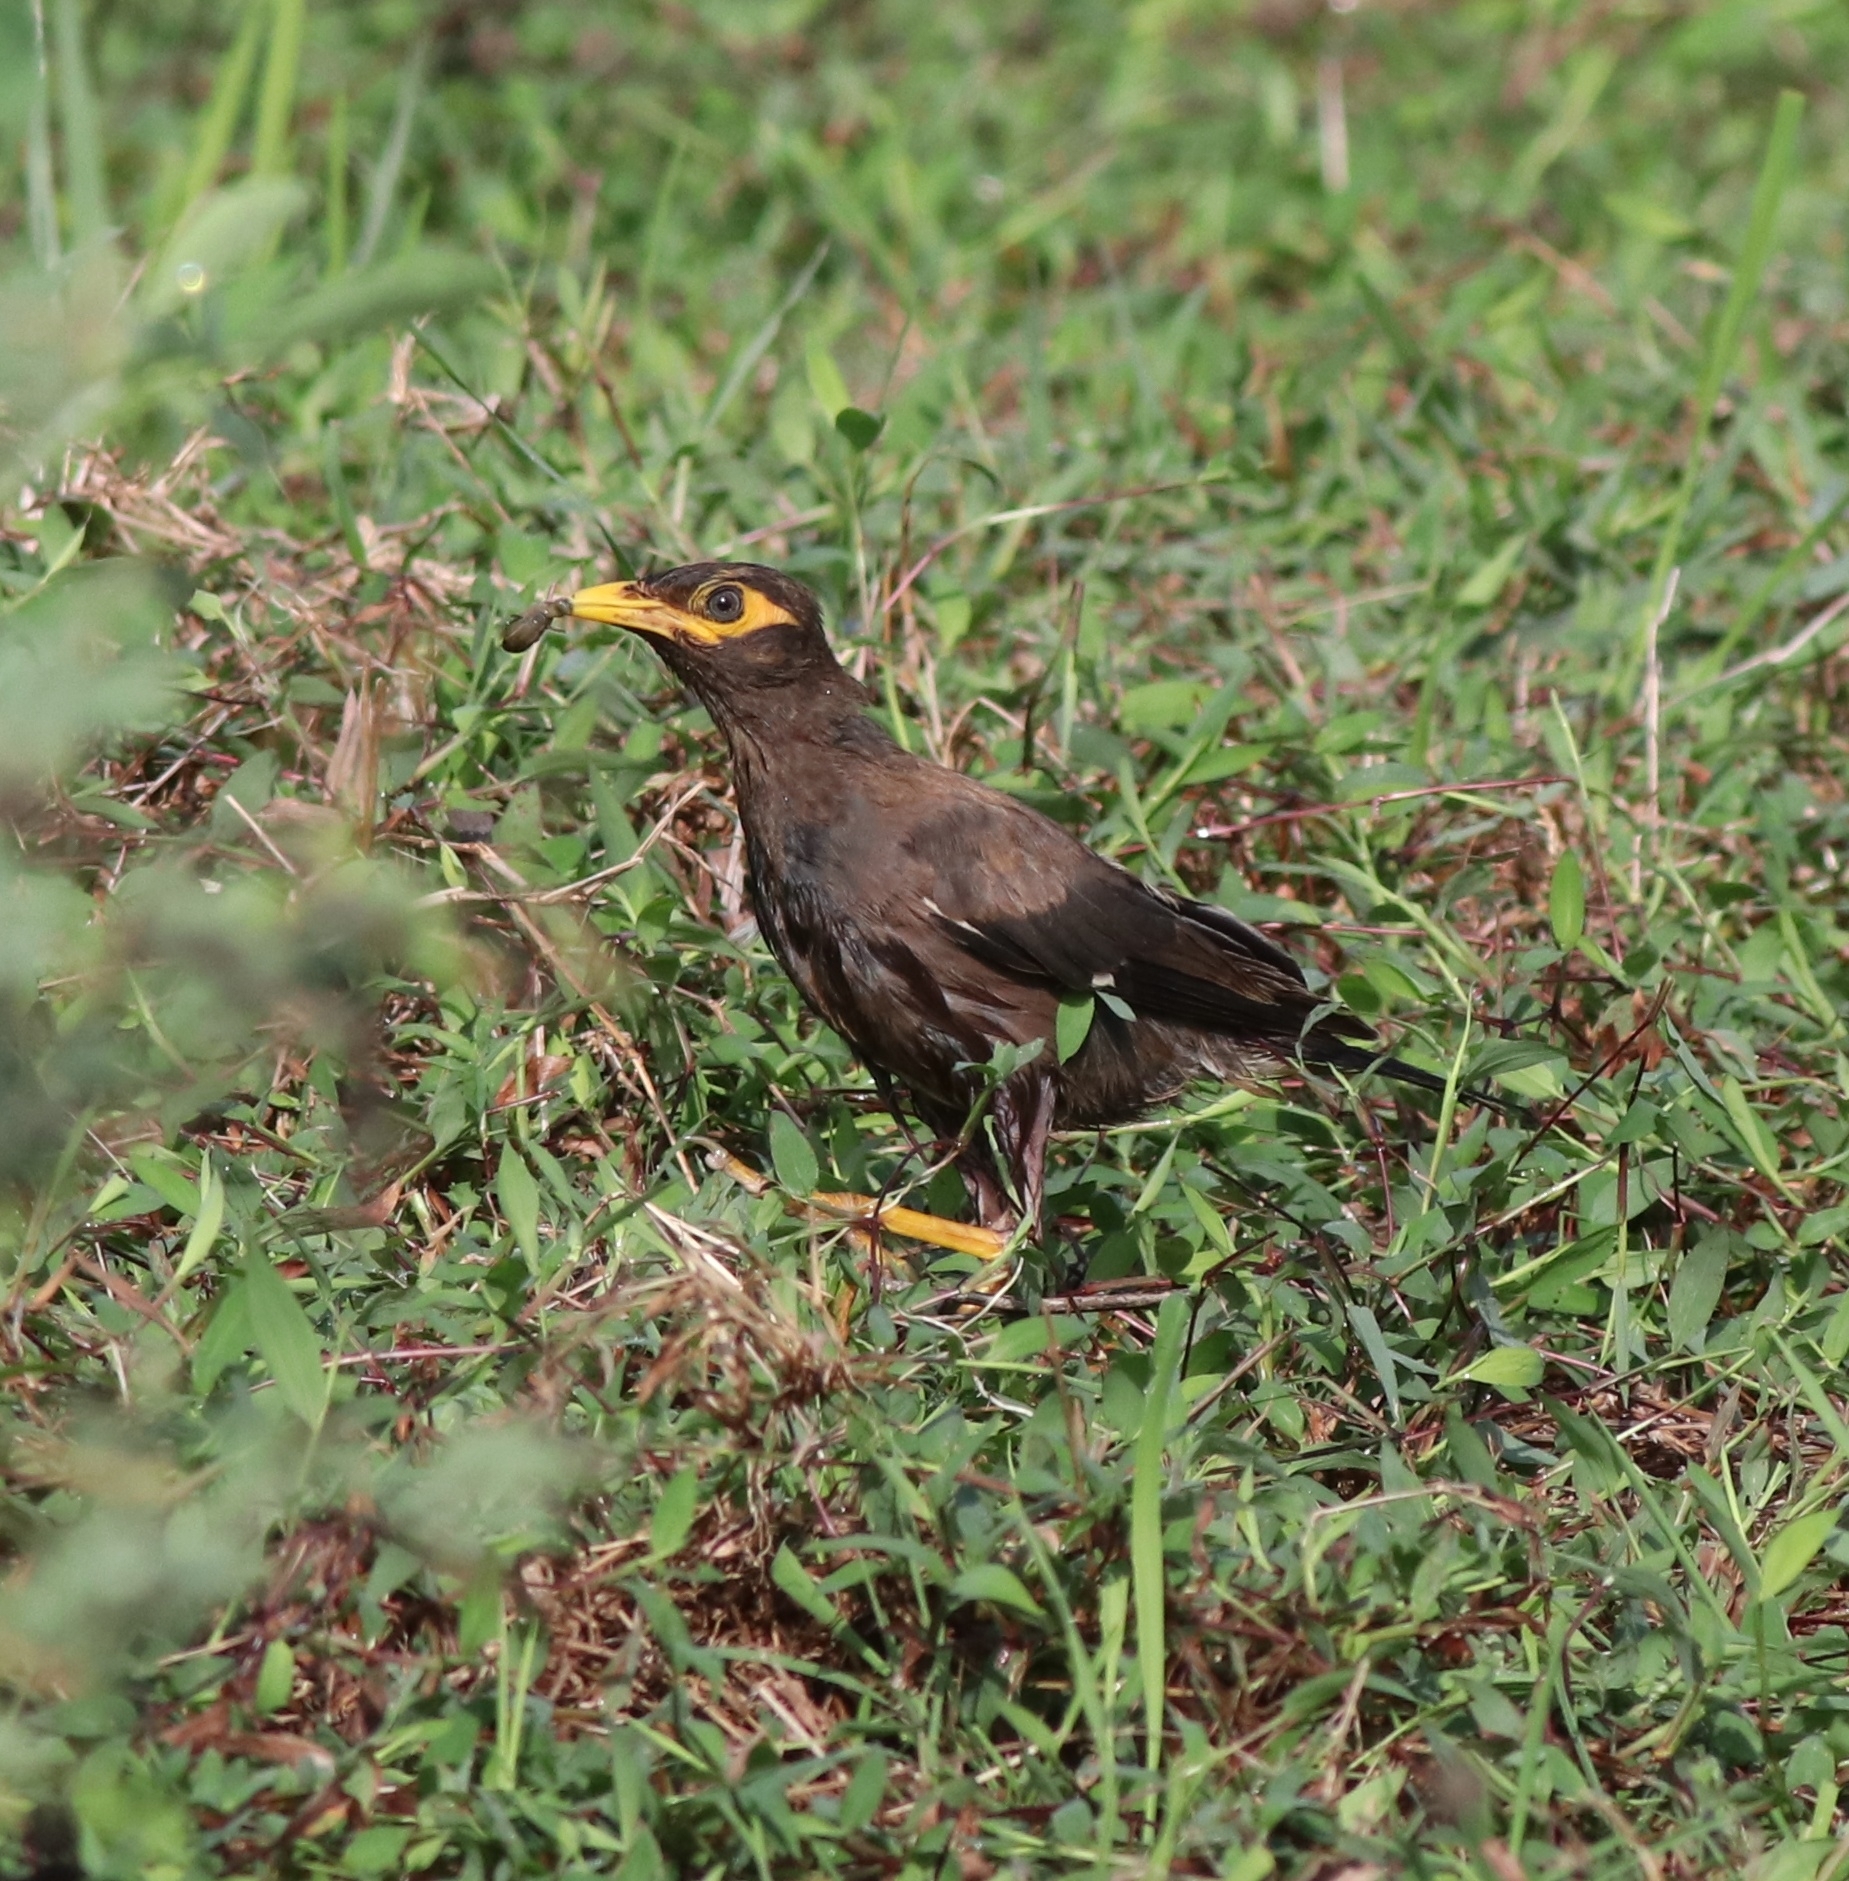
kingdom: Animalia
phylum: Chordata
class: Aves
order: Passeriformes
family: Sturnidae
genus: Acridotheres
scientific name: Acridotheres tristis
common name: Common myna
